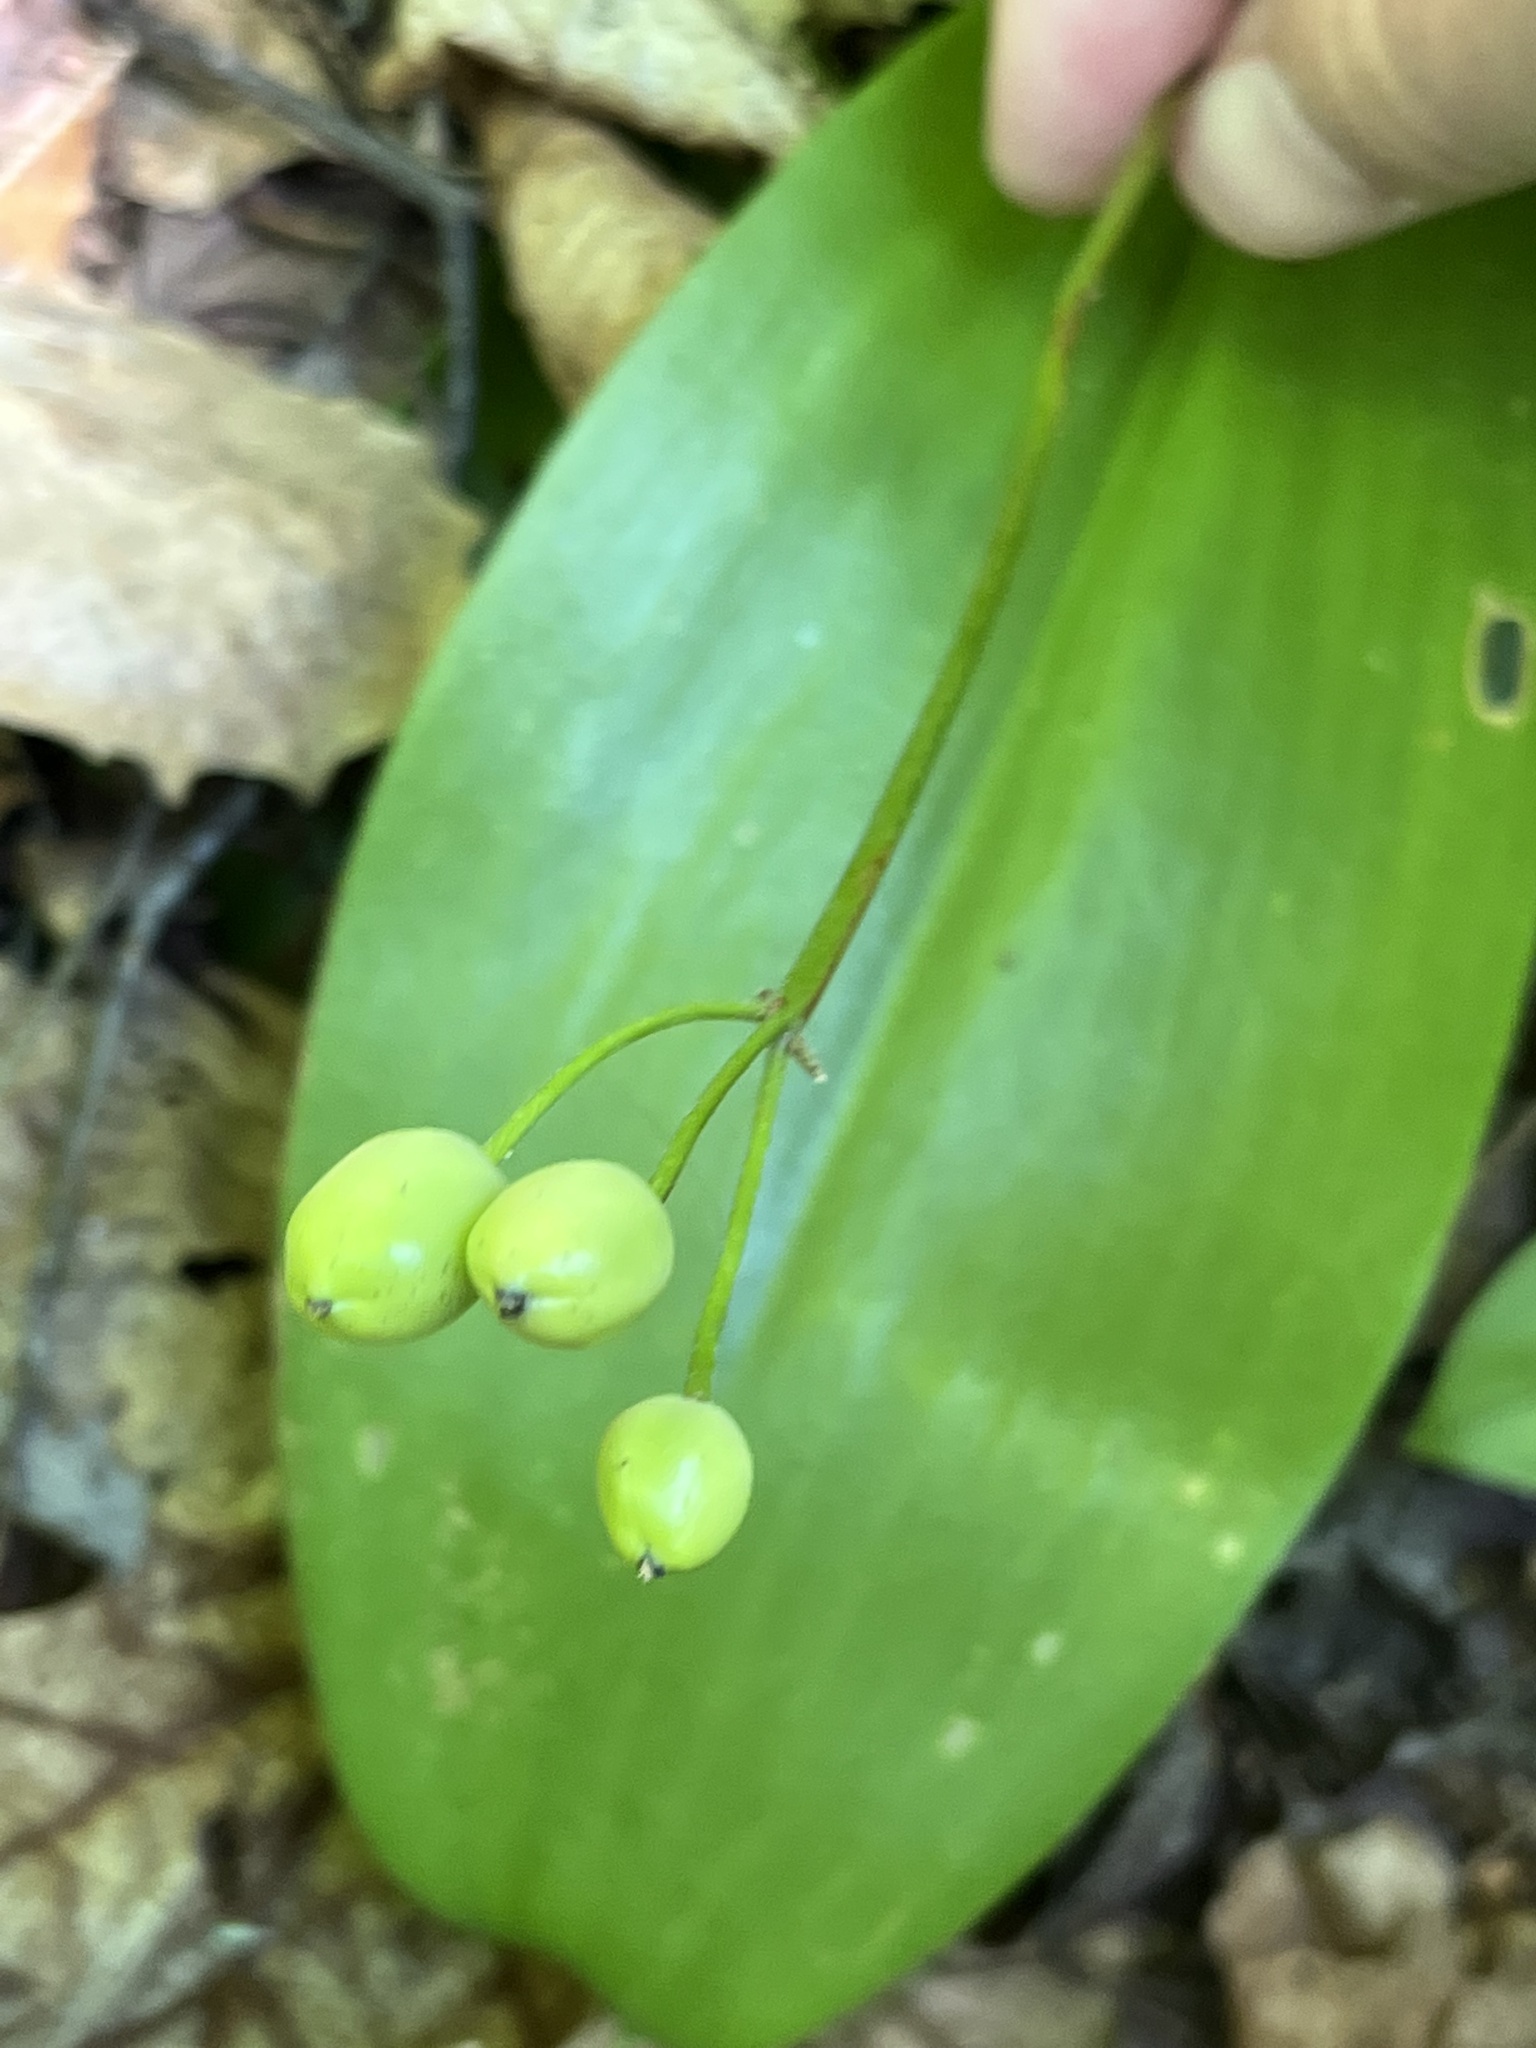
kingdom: Plantae
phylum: Tracheophyta
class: Liliopsida
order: Liliales
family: Liliaceae
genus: Clintonia
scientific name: Clintonia borealis
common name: Yellow clintonia
